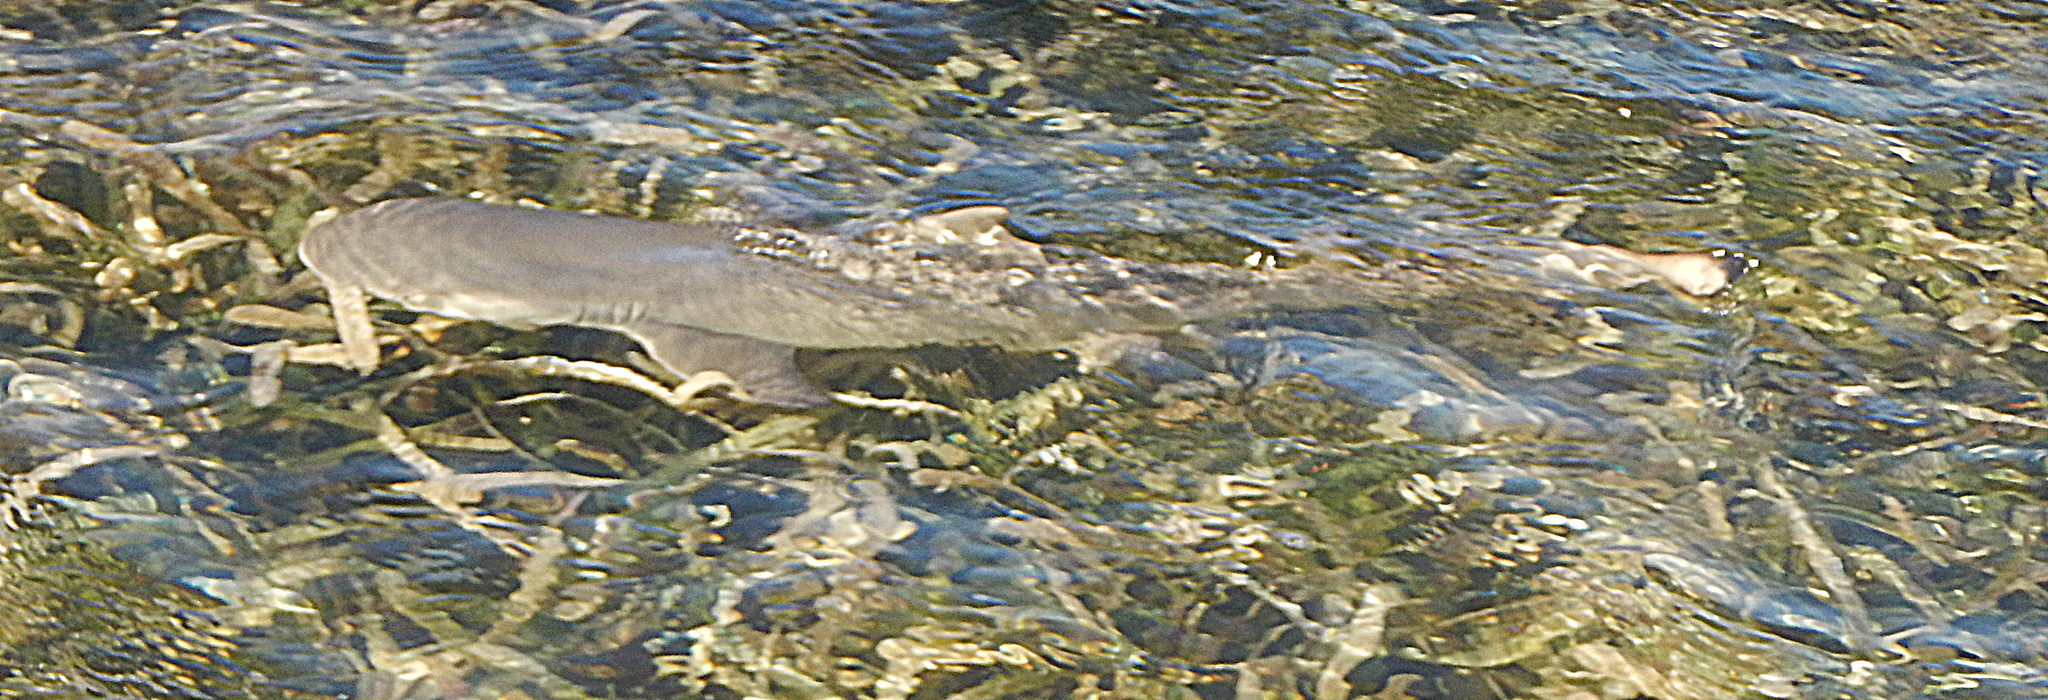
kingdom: Animalia
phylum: Chordata
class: Elasmobranchii
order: Carcharhiniformes
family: Carcharhinidae
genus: Negaprion
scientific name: Negaprion brevirostris
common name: Lemon shark
